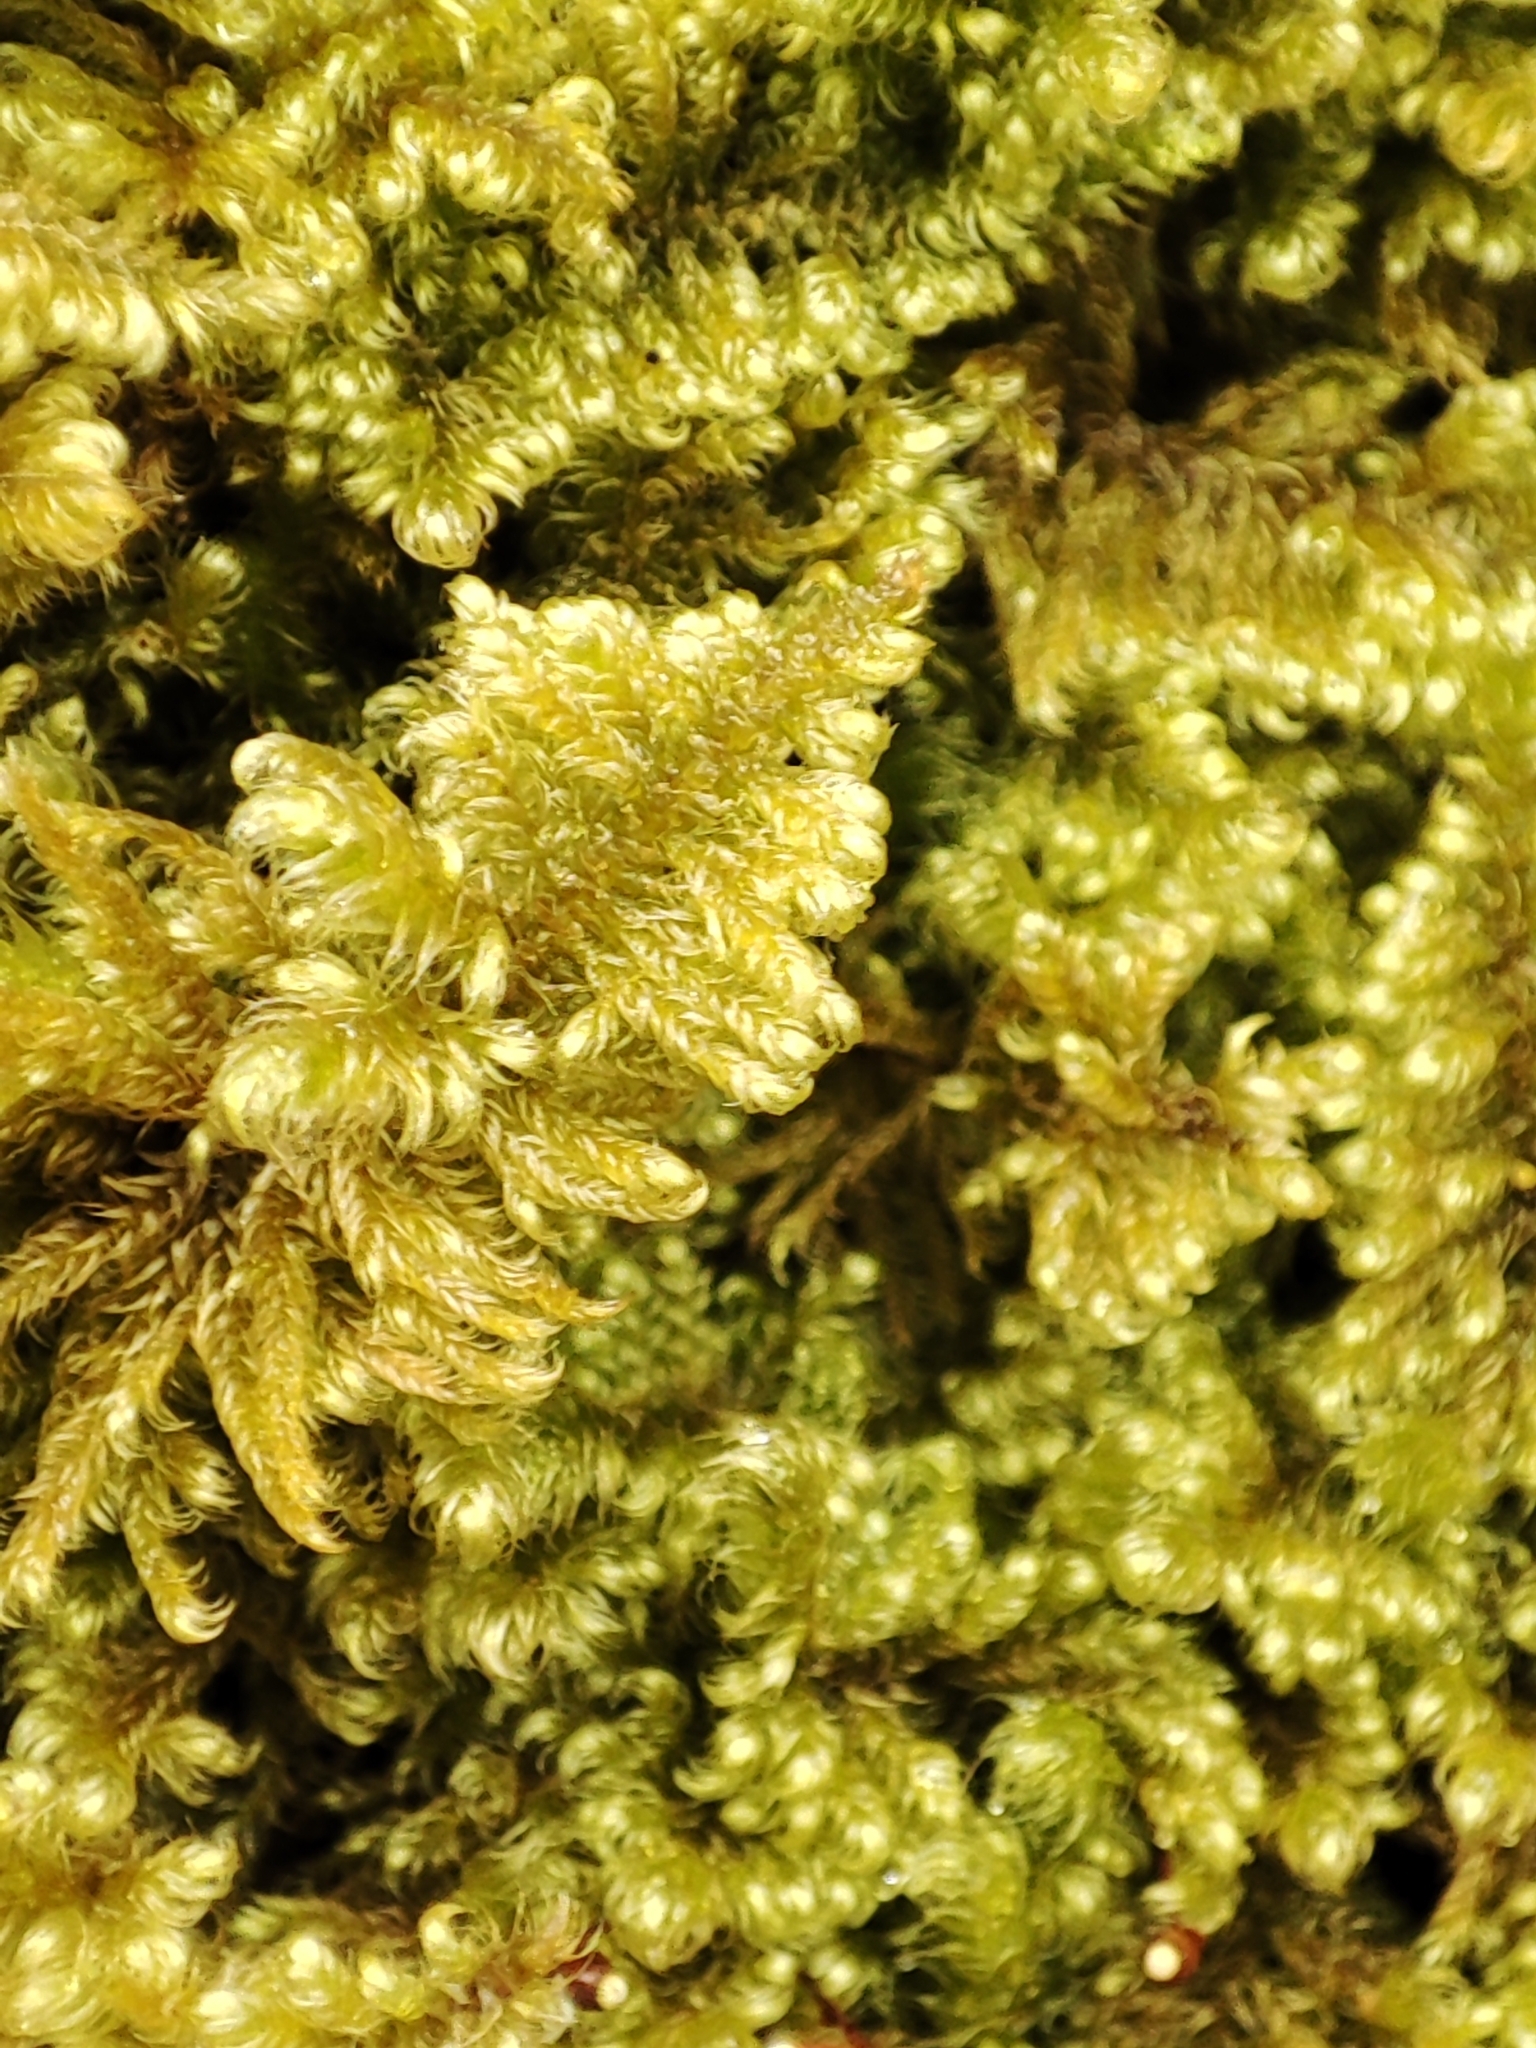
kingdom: Plantae
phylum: Bryophyta
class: Bryopsida
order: Hypnales
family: Myuriaceae
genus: Ctenidium
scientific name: Ctenidium molluscum
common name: Chalk comb-moss
